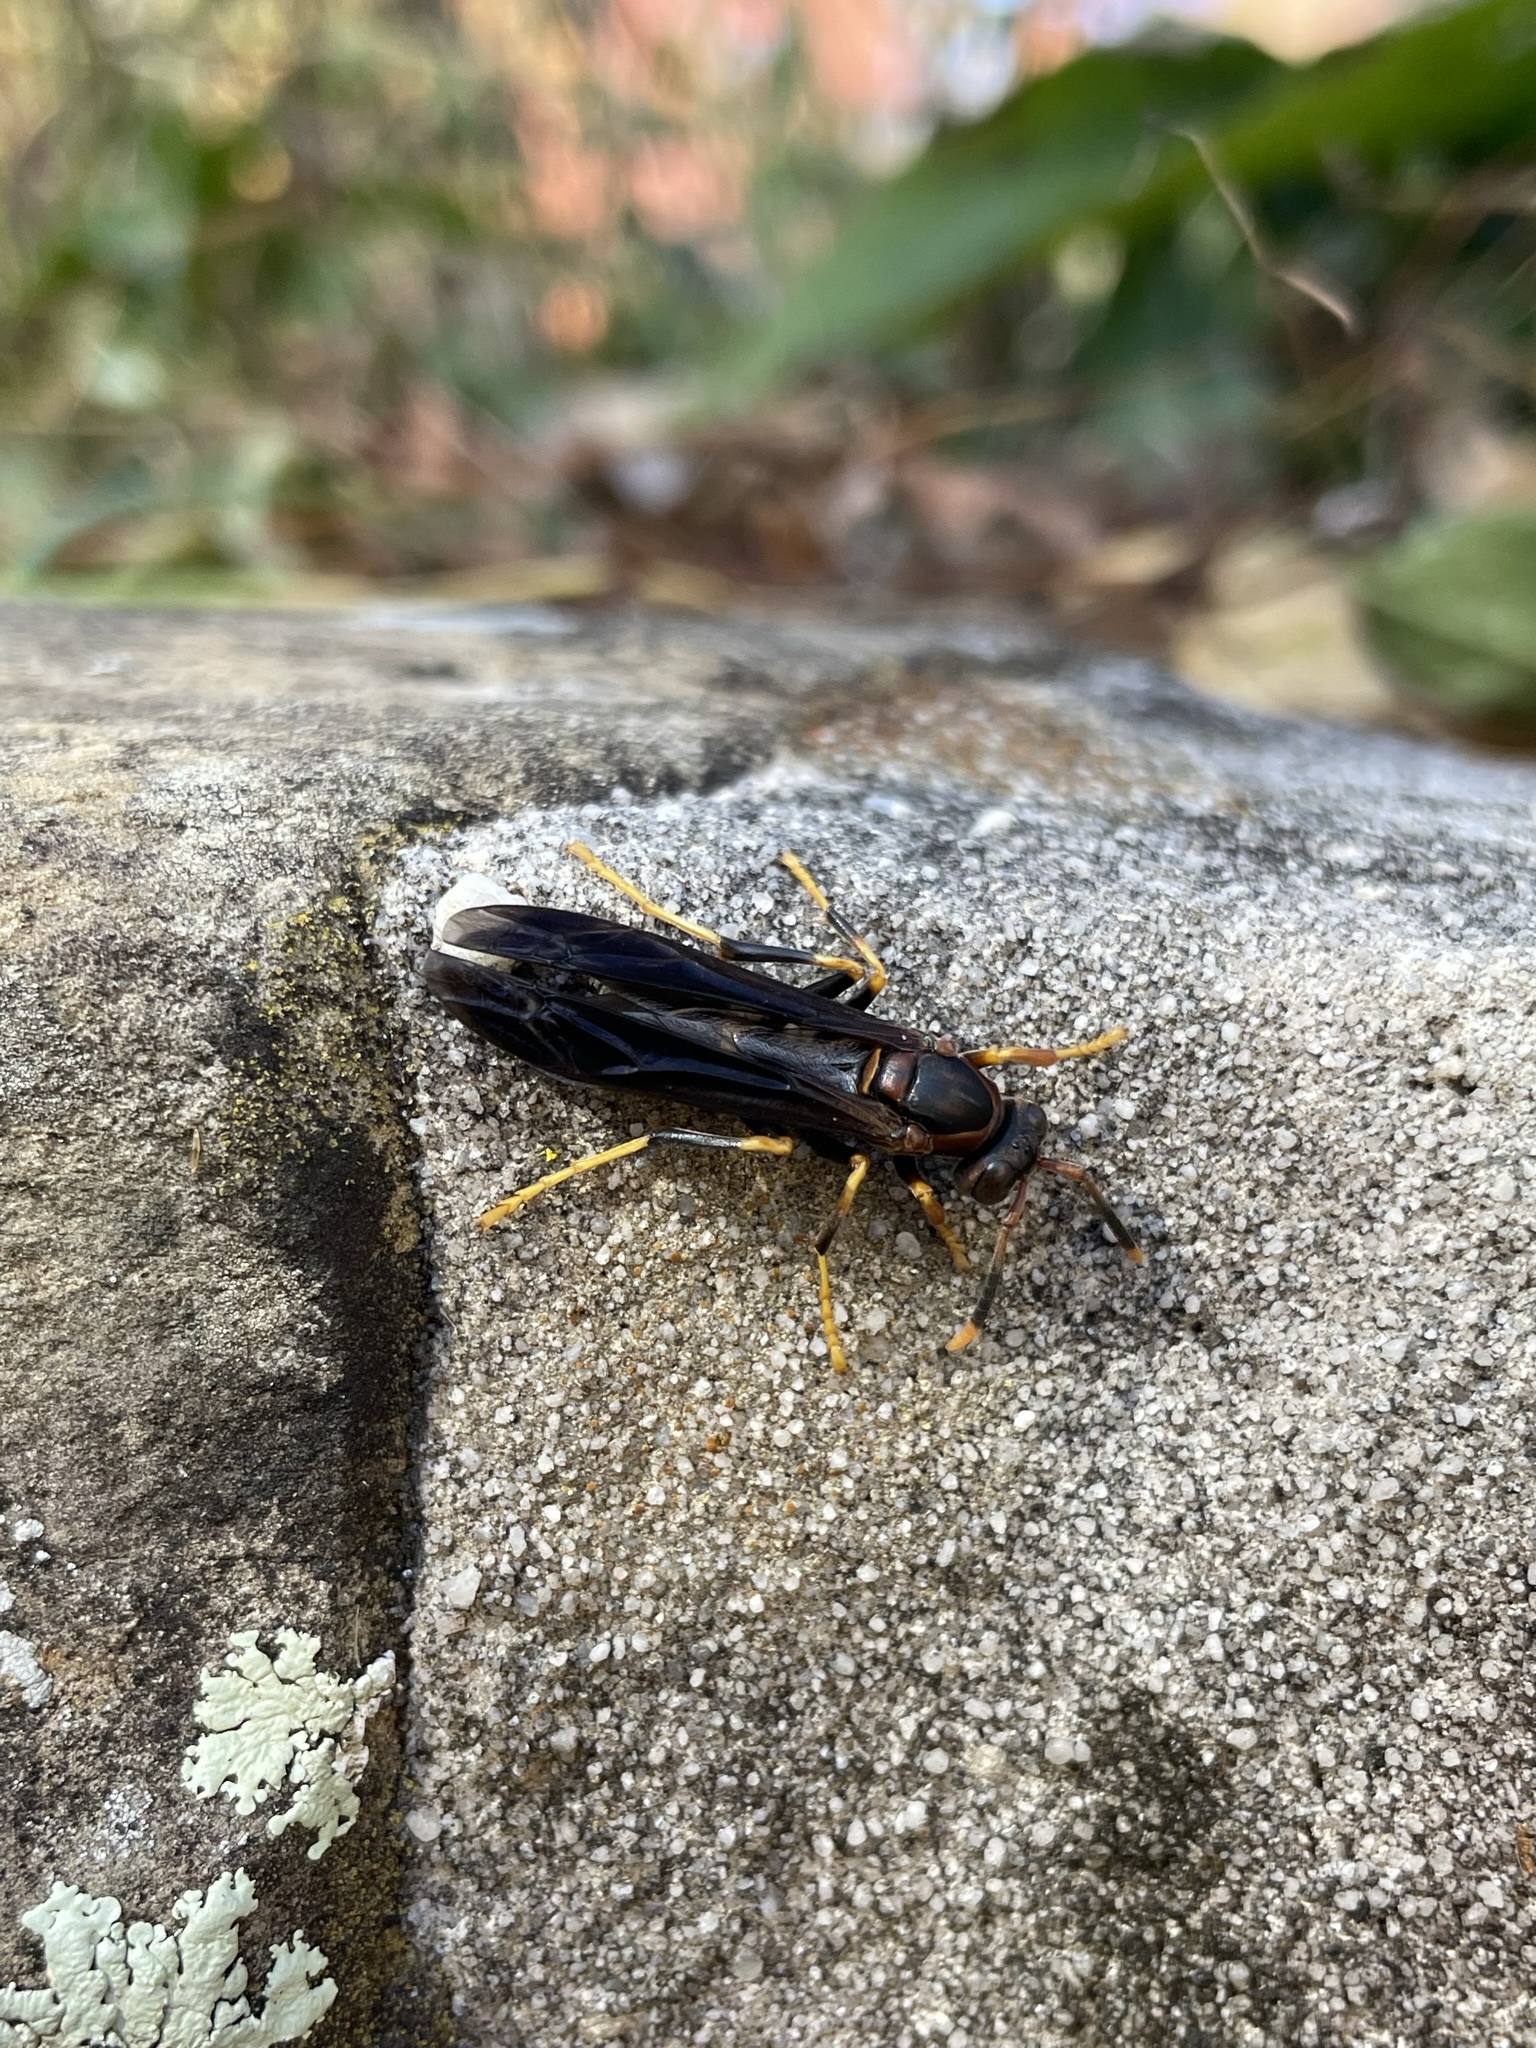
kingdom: Animalia
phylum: Arthropoda
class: Insecta
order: Hymenoptera
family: Eumenidae
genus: Polistes
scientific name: Polistes annularis
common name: Ringed paper wasp
